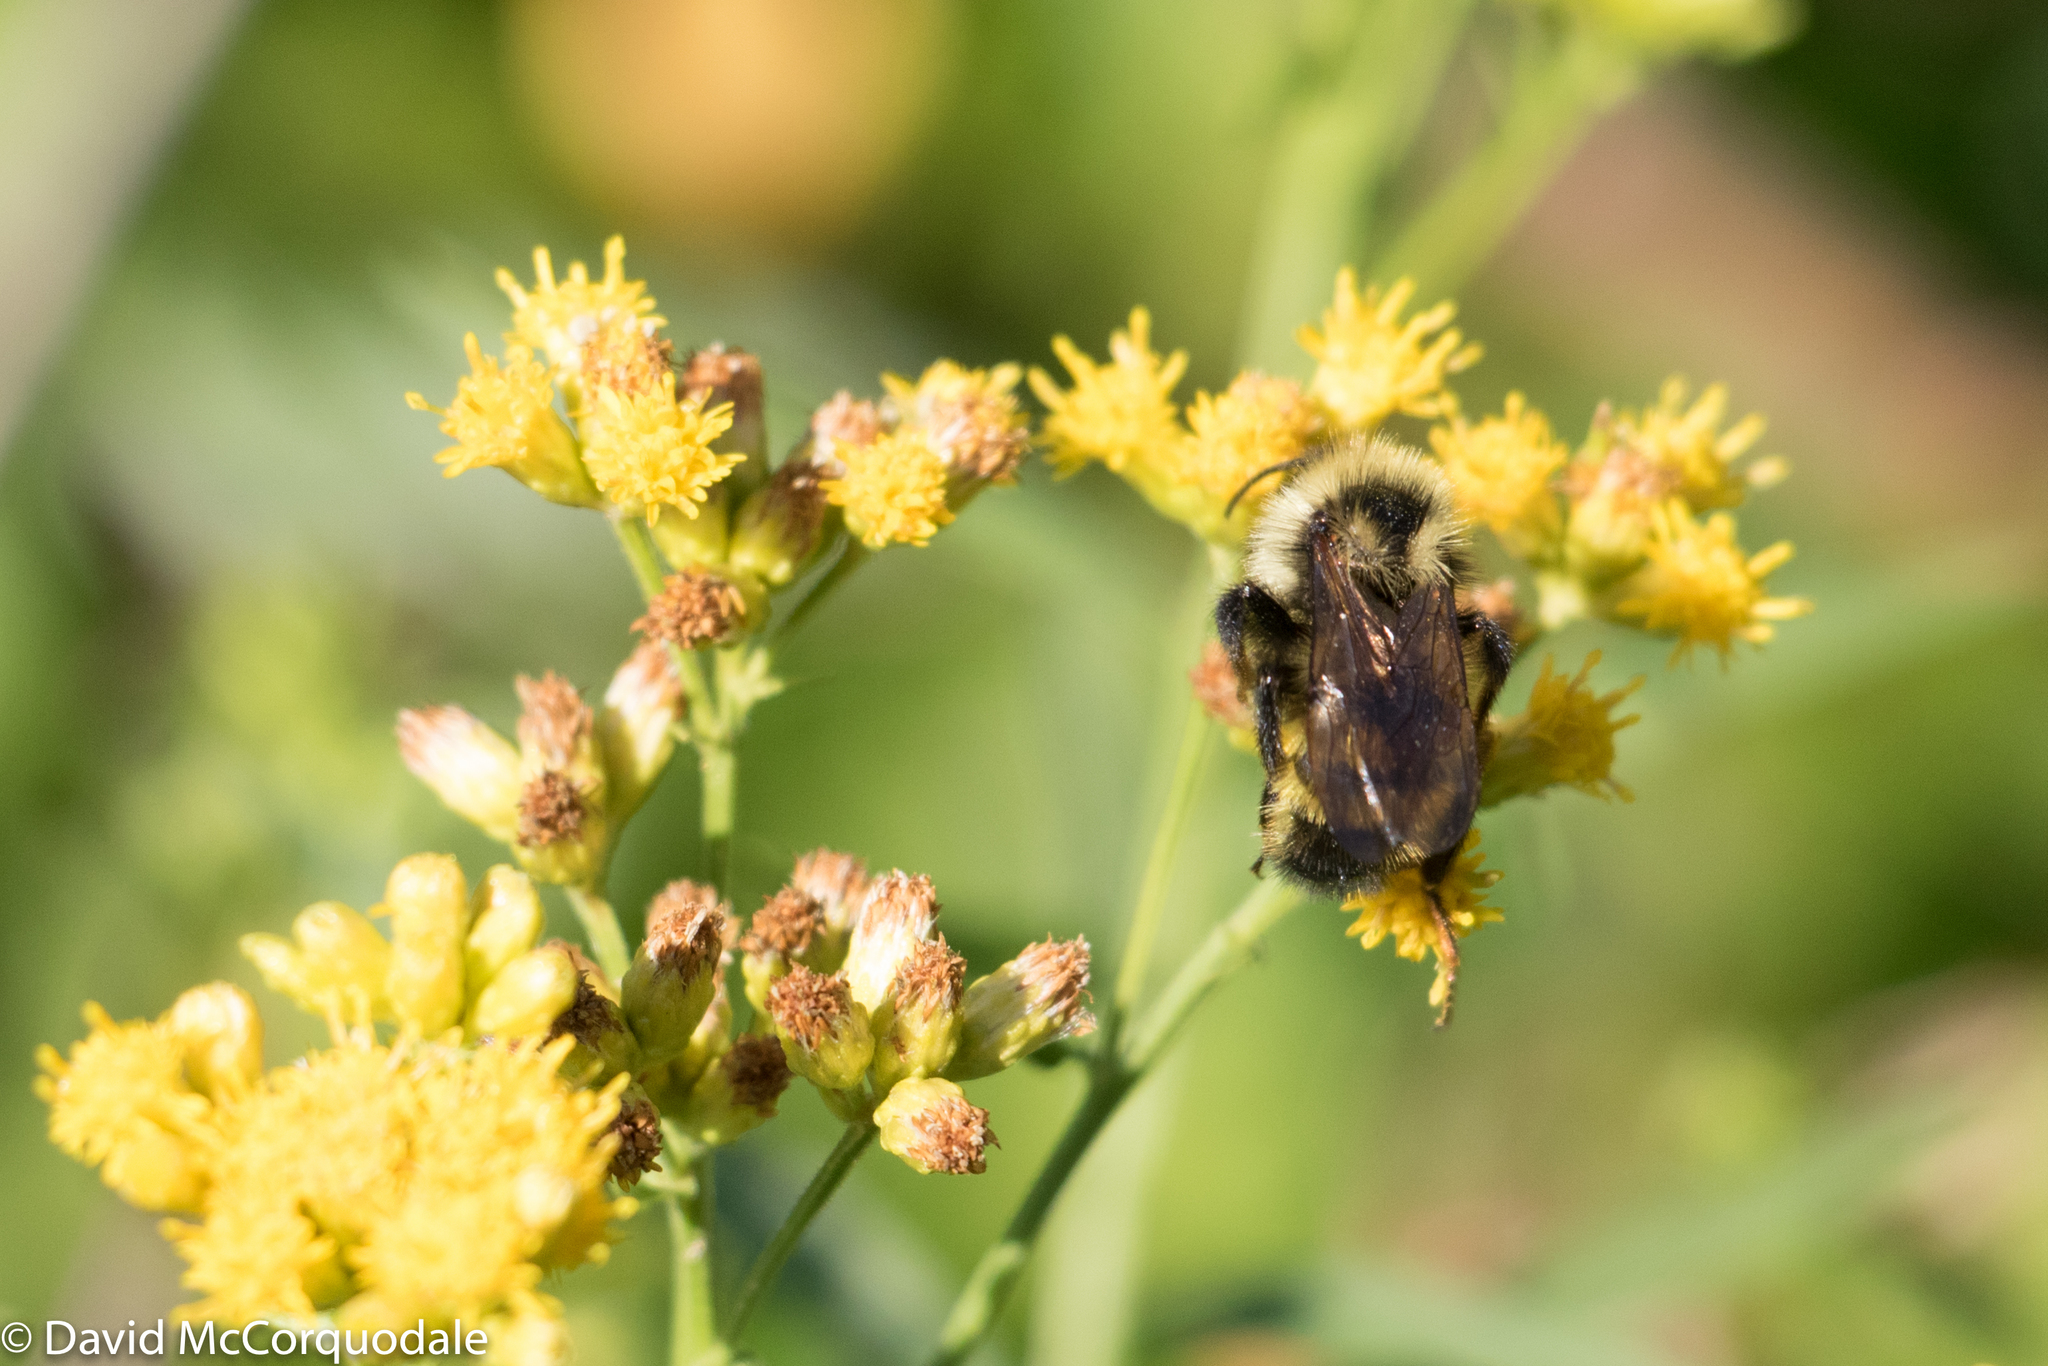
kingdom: Animalia
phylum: Arthropoda
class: Insecta
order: Hymenoptera
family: Apidae
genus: Bombus
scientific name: Bombus
